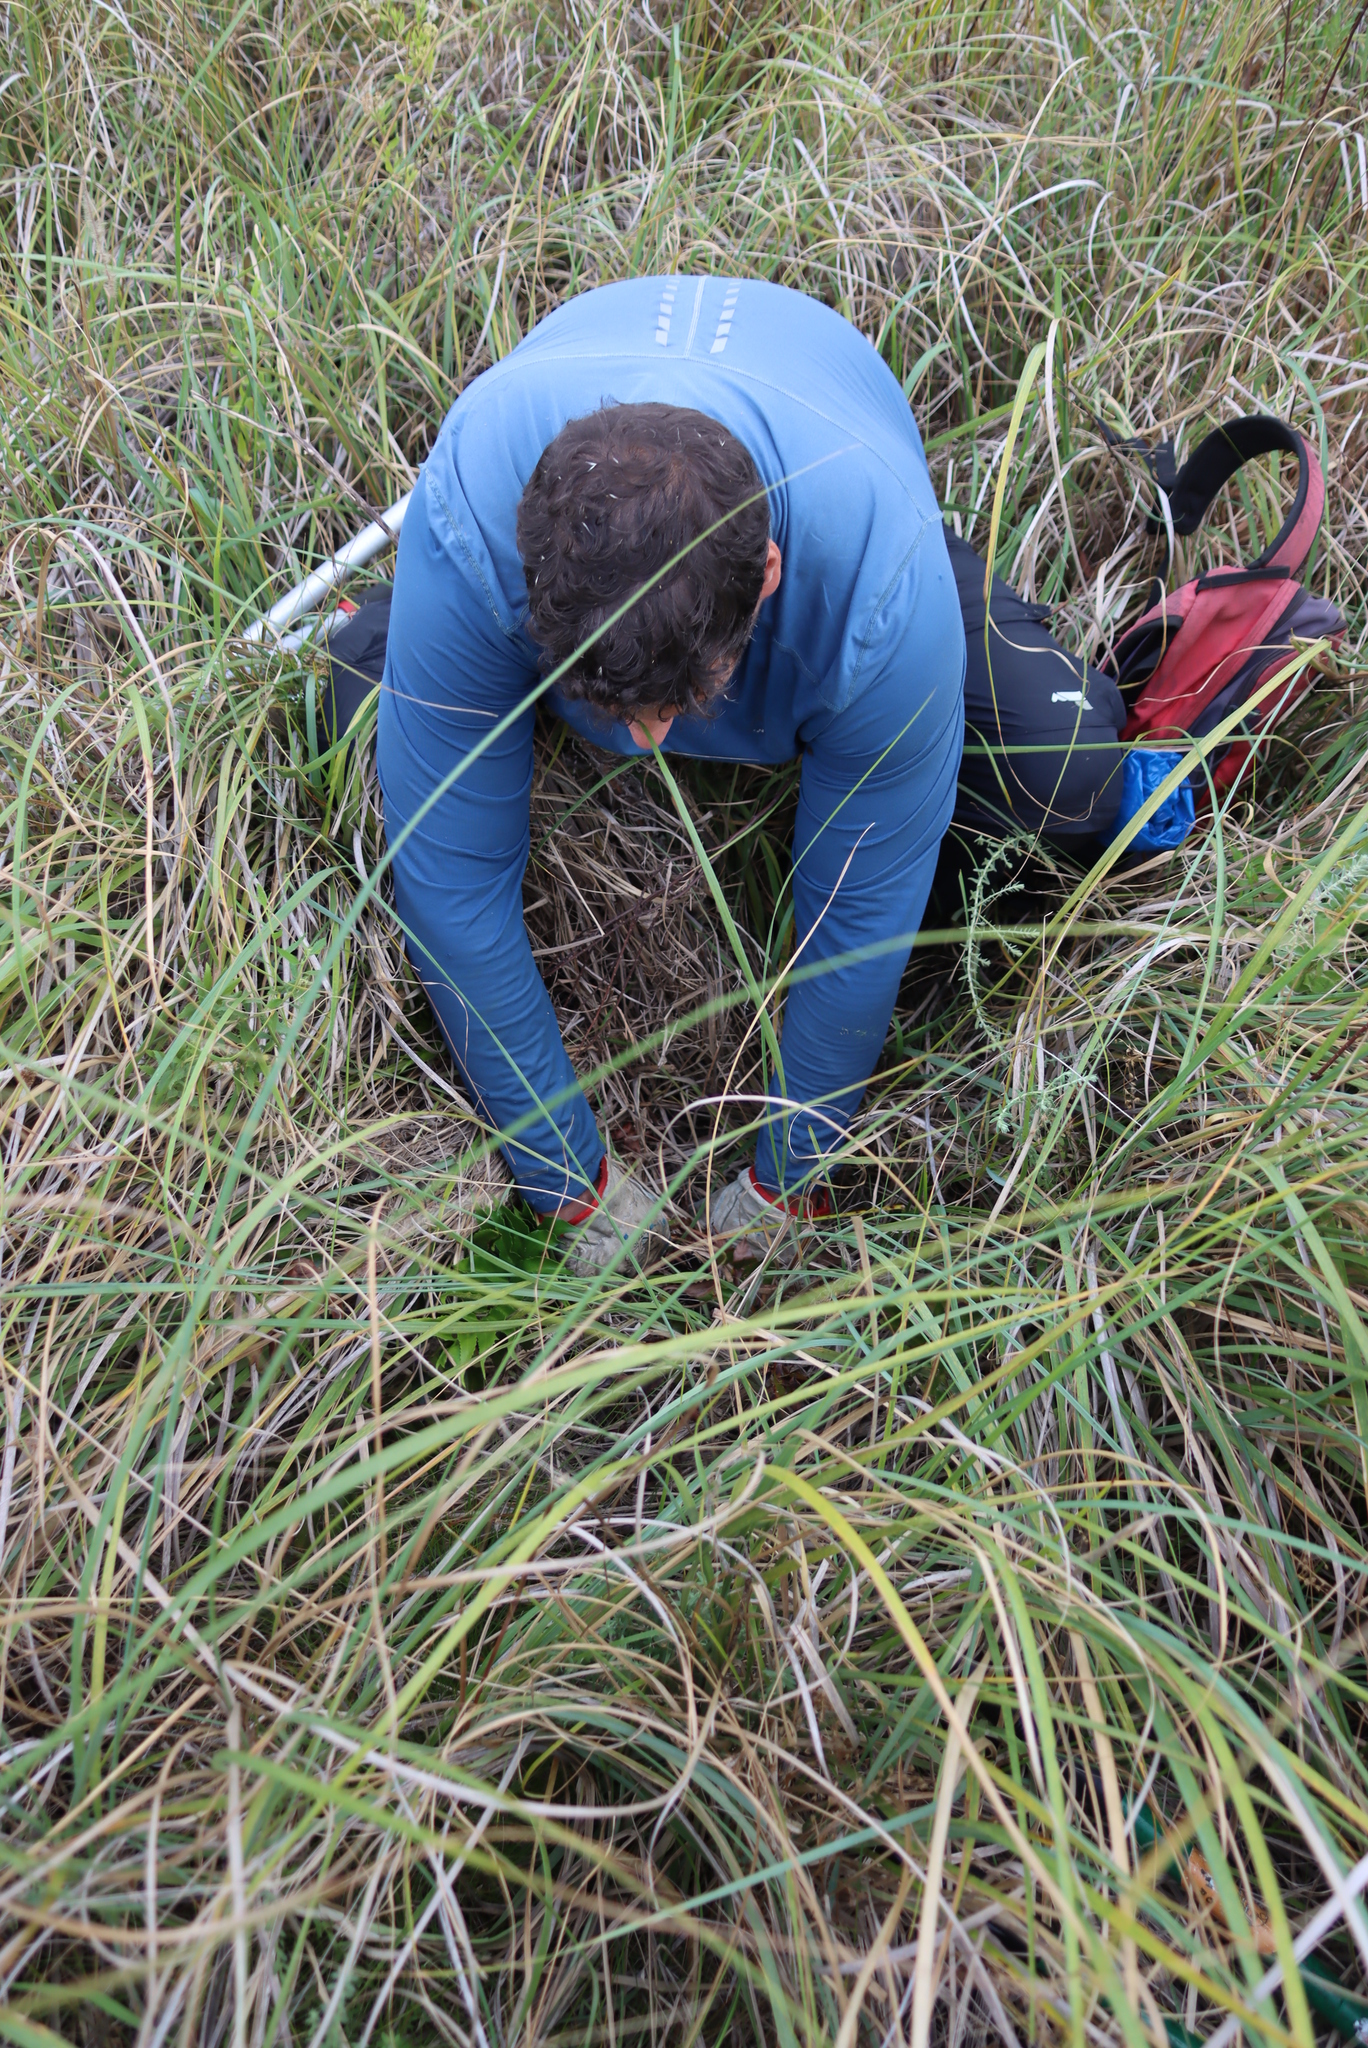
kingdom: Plantae
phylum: Tracheophyta
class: Polypodiopsida
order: Polypodiales
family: Dryopteridaceae
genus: Cyrtomium
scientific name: Cyrtomium falcatum
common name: House holly-fern
